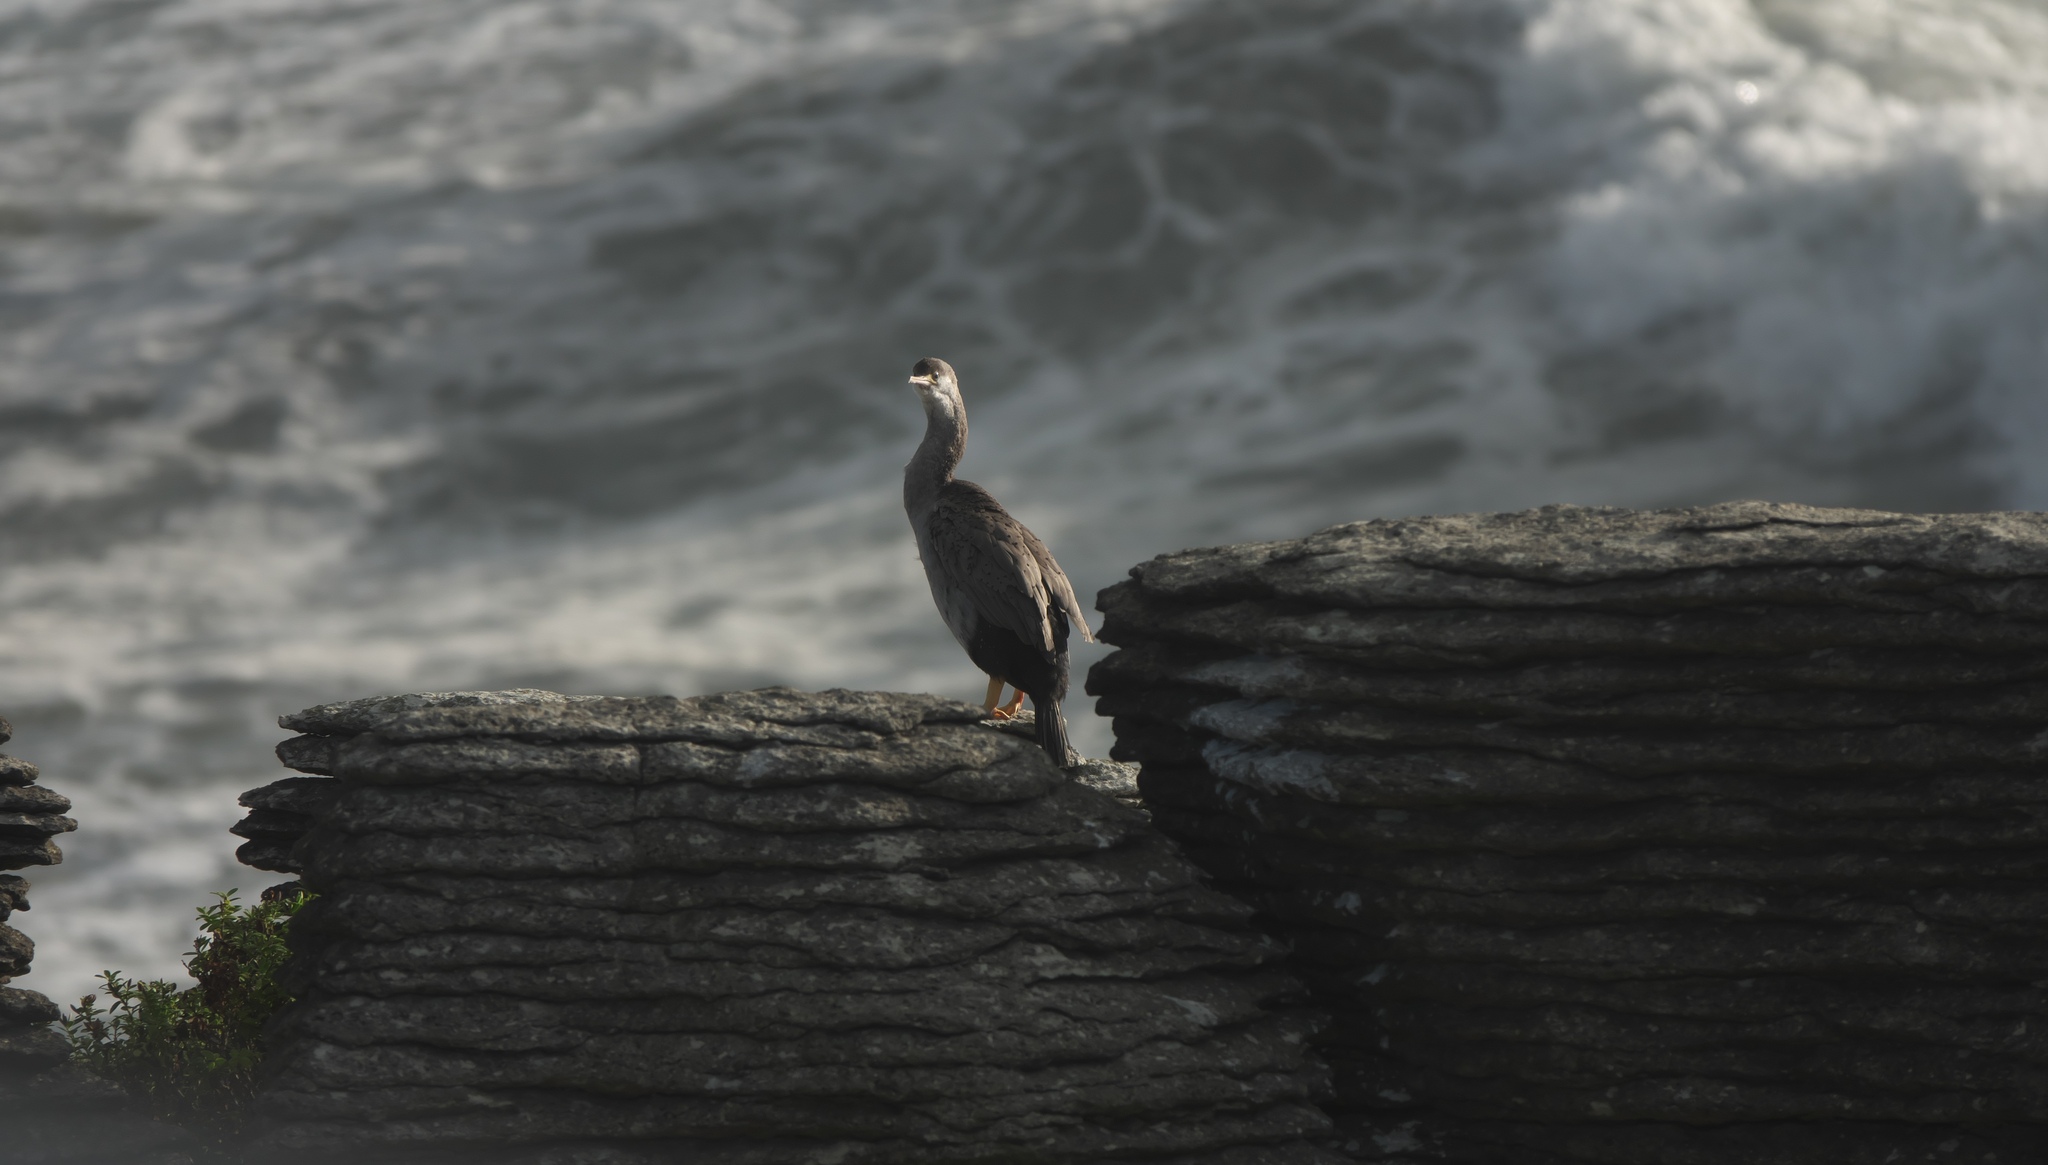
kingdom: Animalia
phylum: Chordata
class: Aves
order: Suliformes
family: Phalacrocoracidae
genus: Phalacrocorax
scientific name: Phalacrocorax punctatus
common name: Spotted shag
